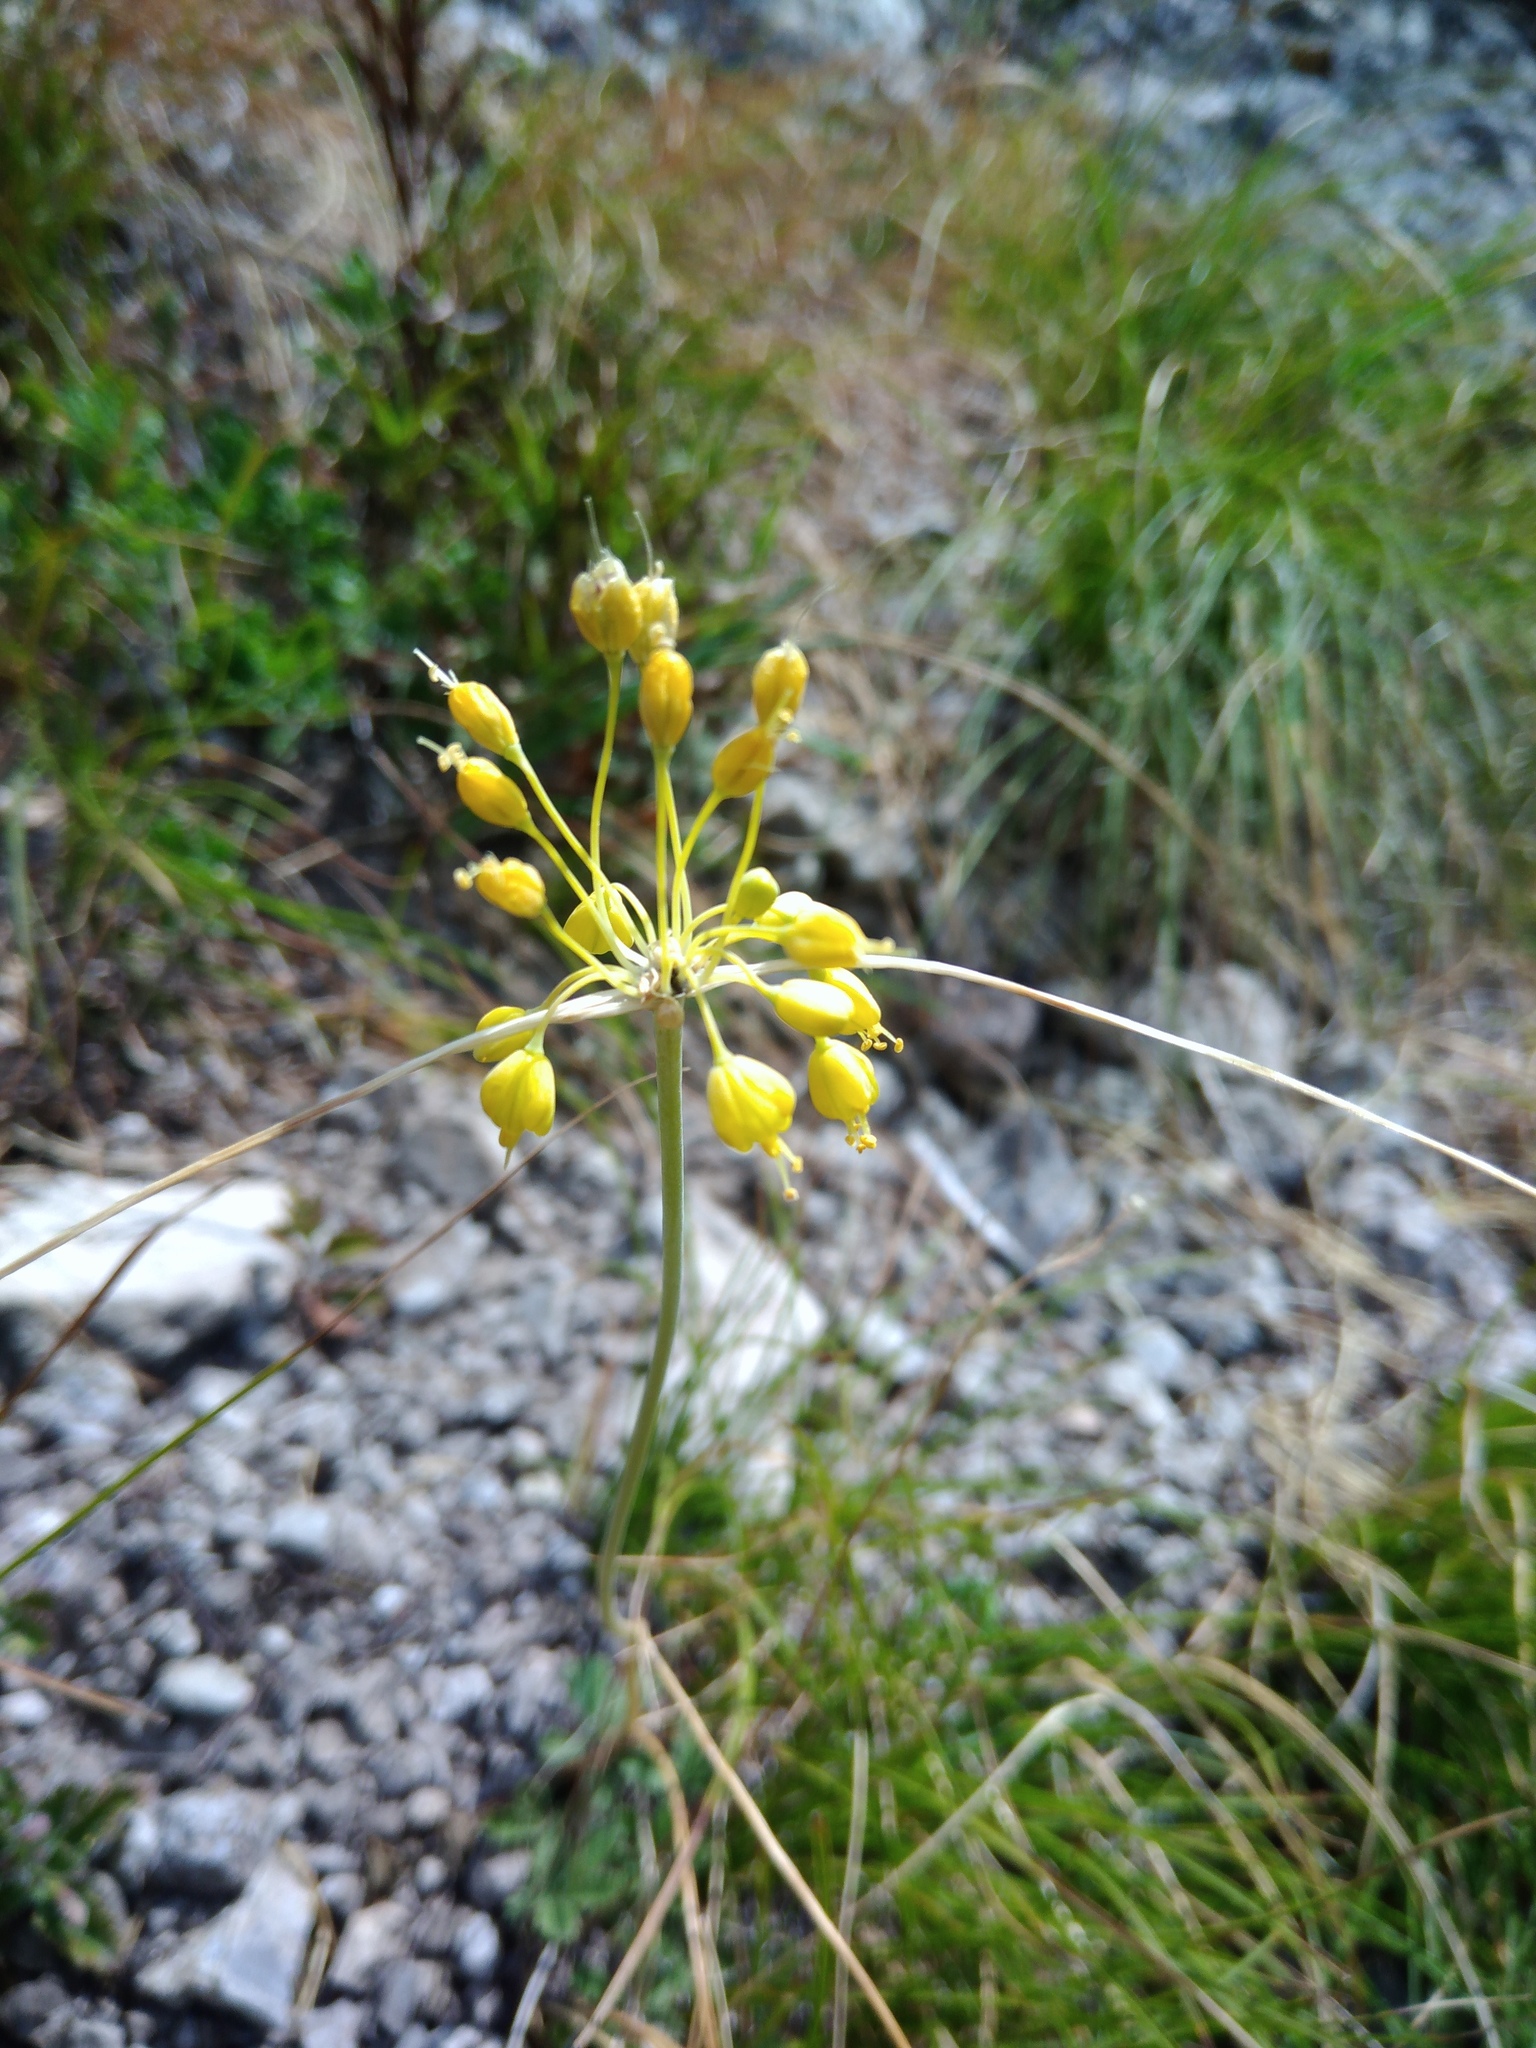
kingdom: Plantae
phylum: Tracheophyta
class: Liliopsida
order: Asparagales
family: Amaryllidaceae
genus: Allium
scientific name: Allium flavum
